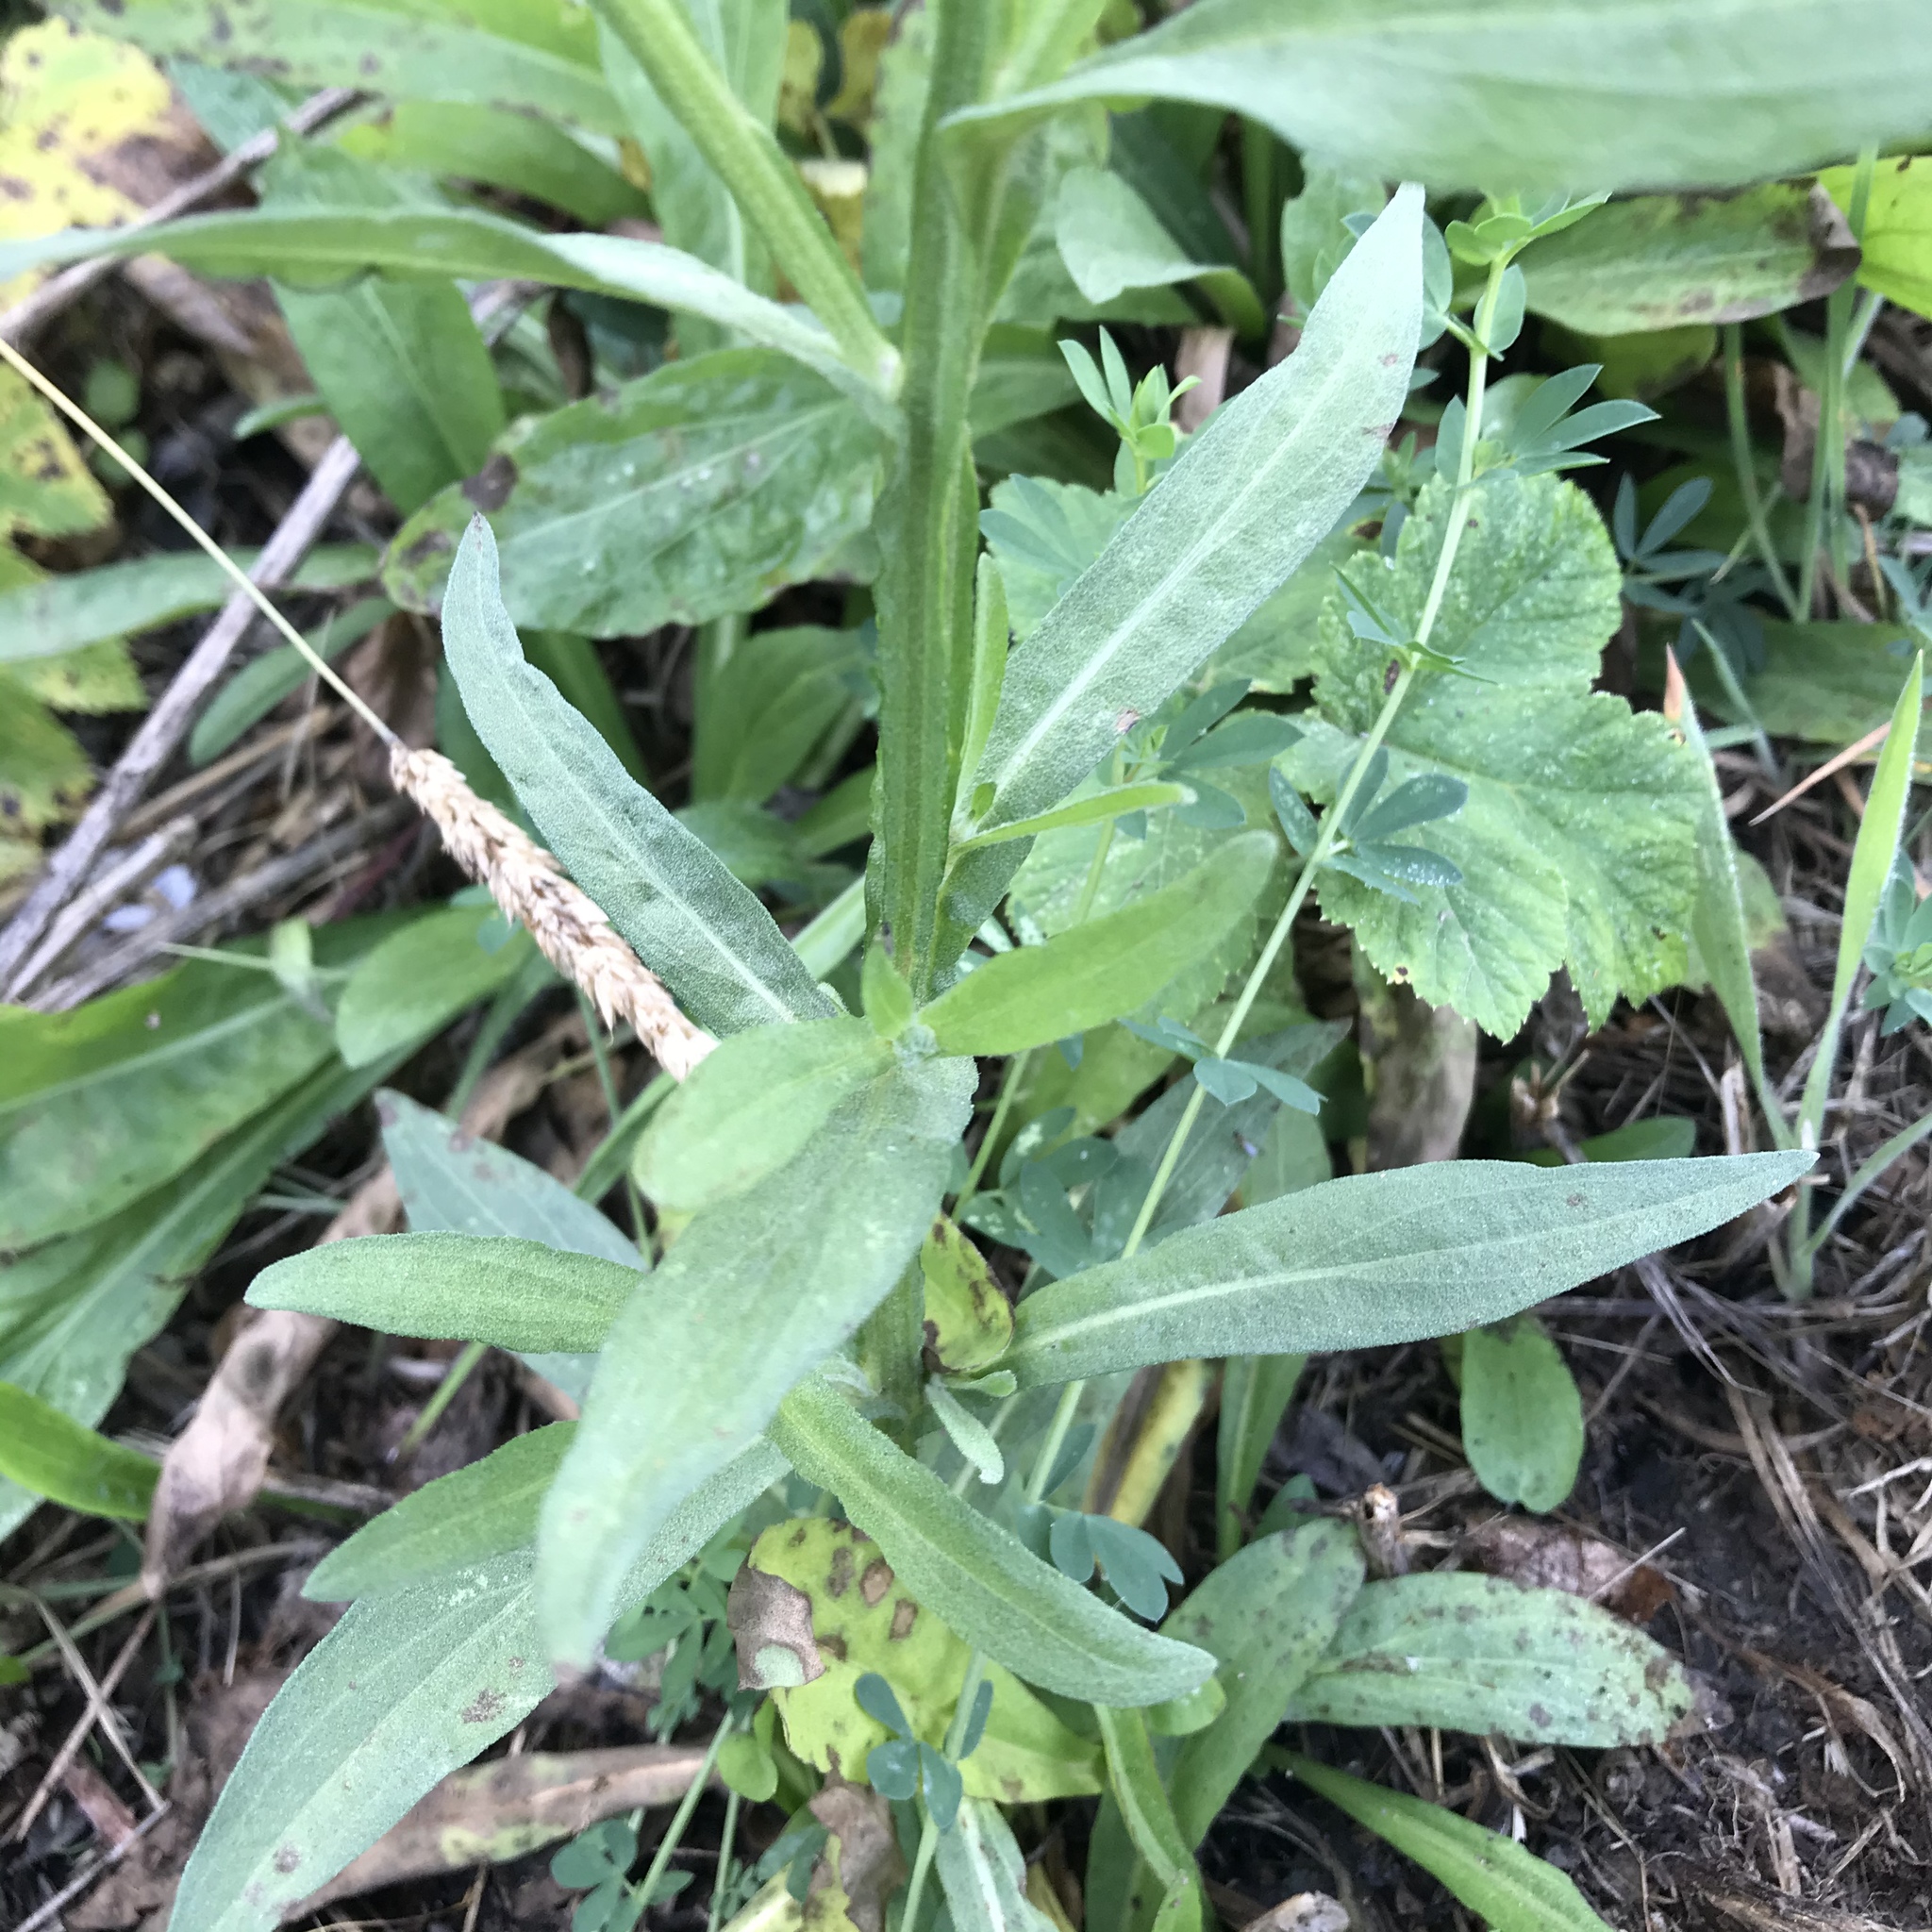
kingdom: Plantae
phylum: Tracheophyta
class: Magnoliopsida
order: Asterales
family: Asteraceae
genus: Helenium
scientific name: Helenium puberulum
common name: Sneezewort
